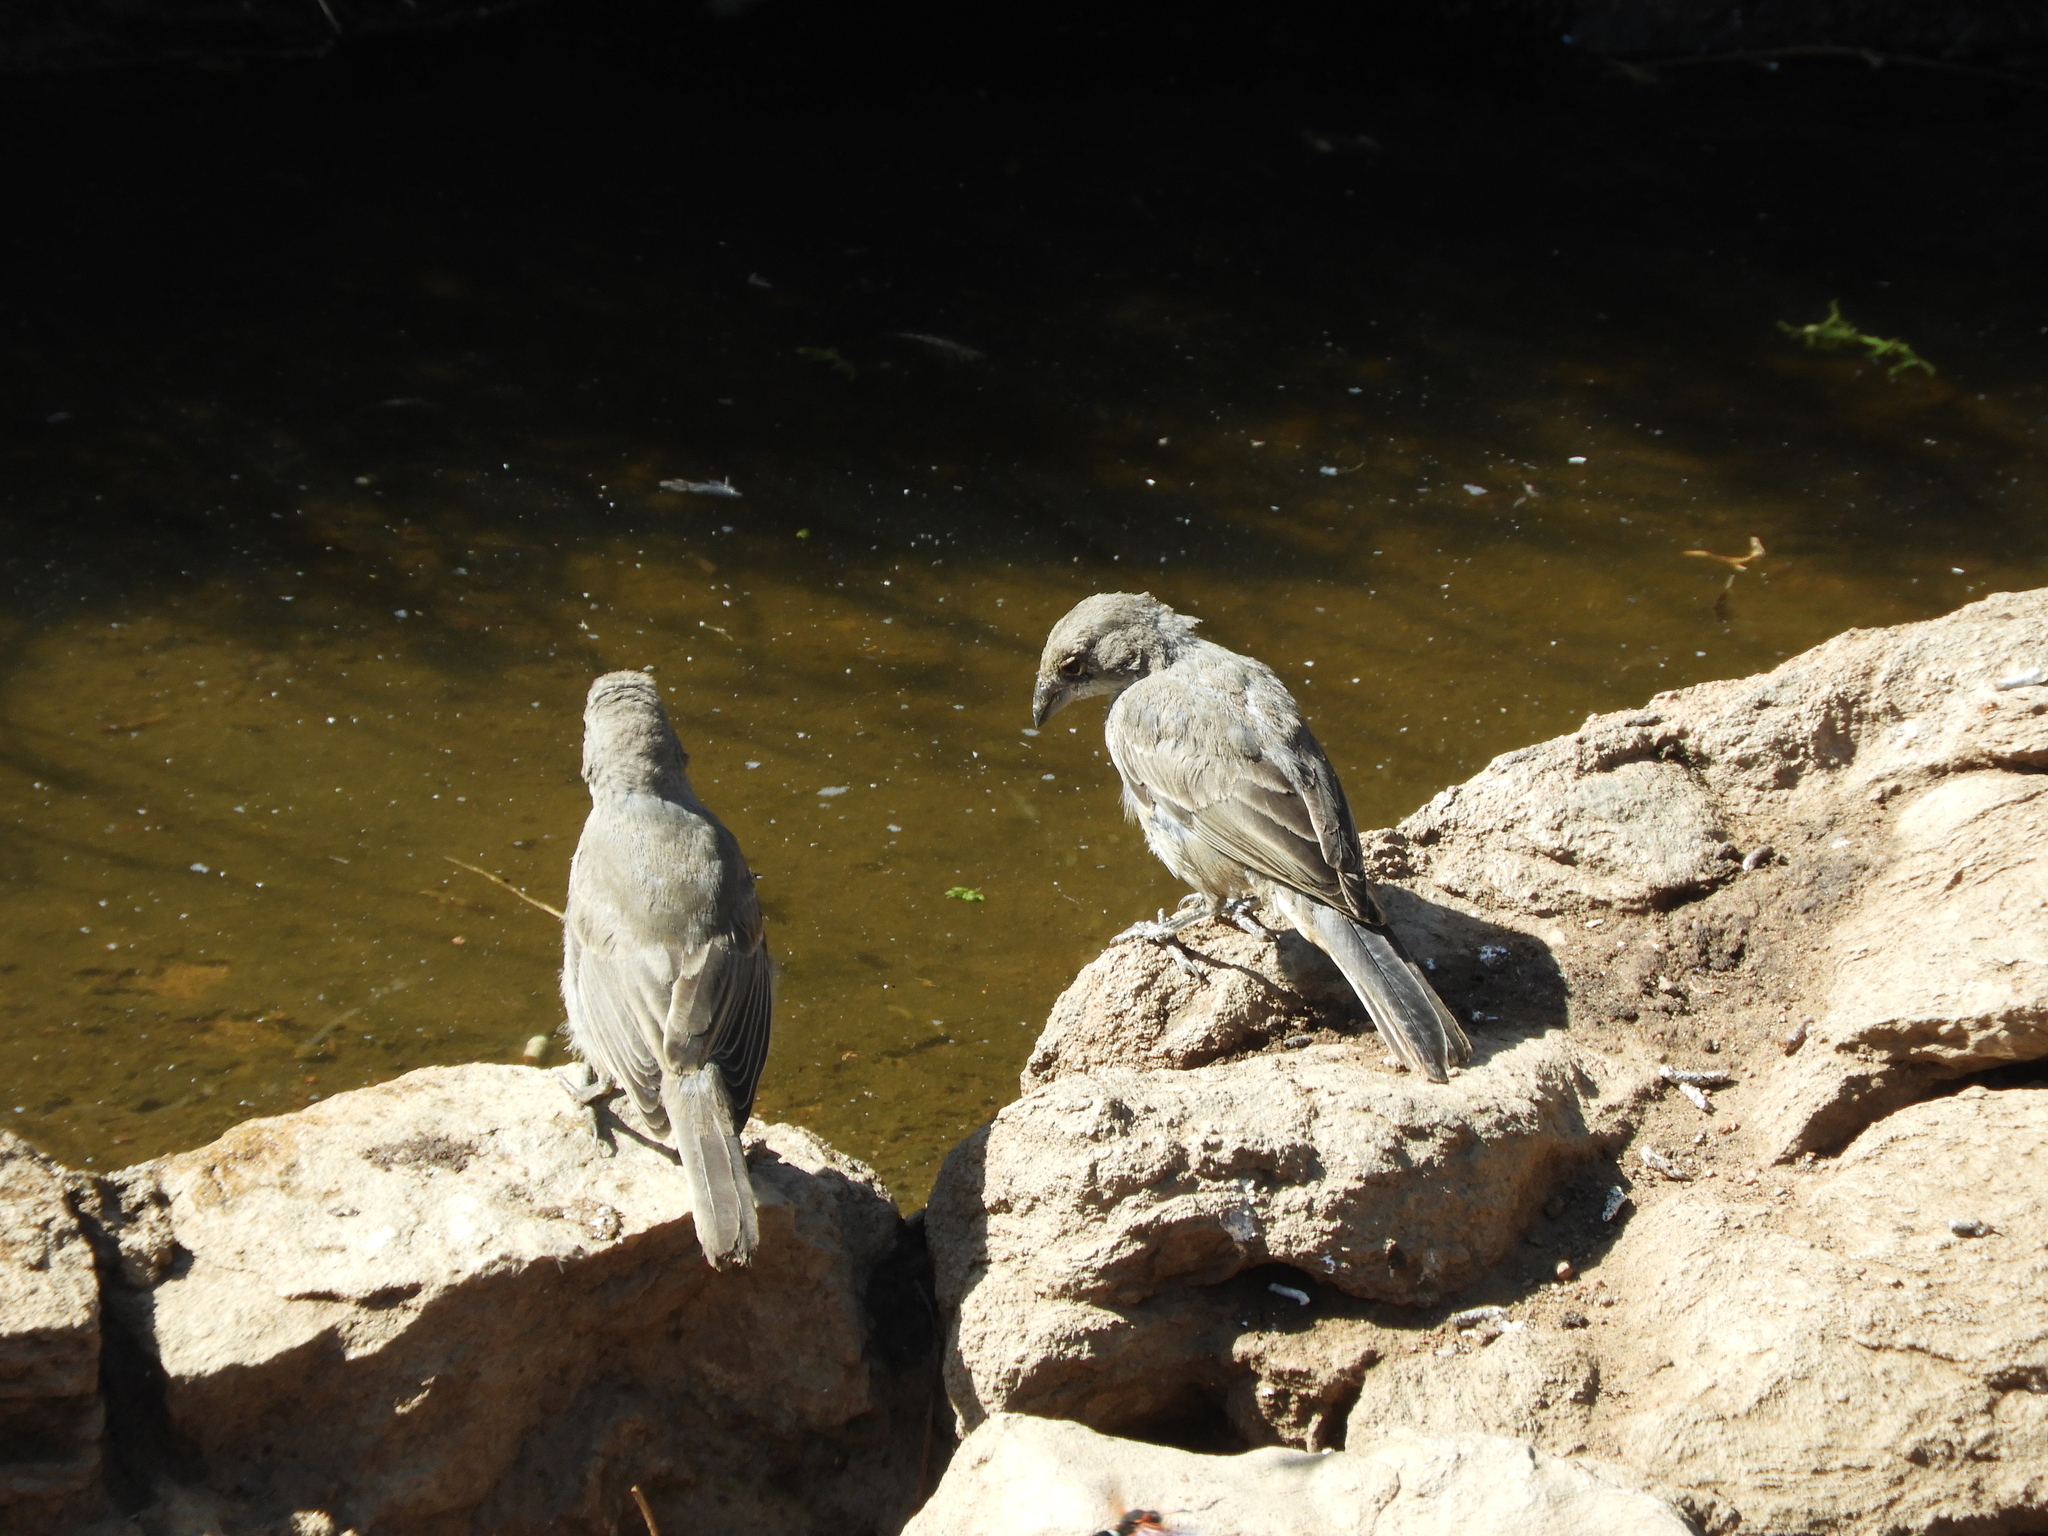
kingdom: Animalia
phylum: Chordata
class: Aves
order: Passeriformes
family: Thraupidae
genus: Diuca
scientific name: Diuca diuca
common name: Common diuca finch
